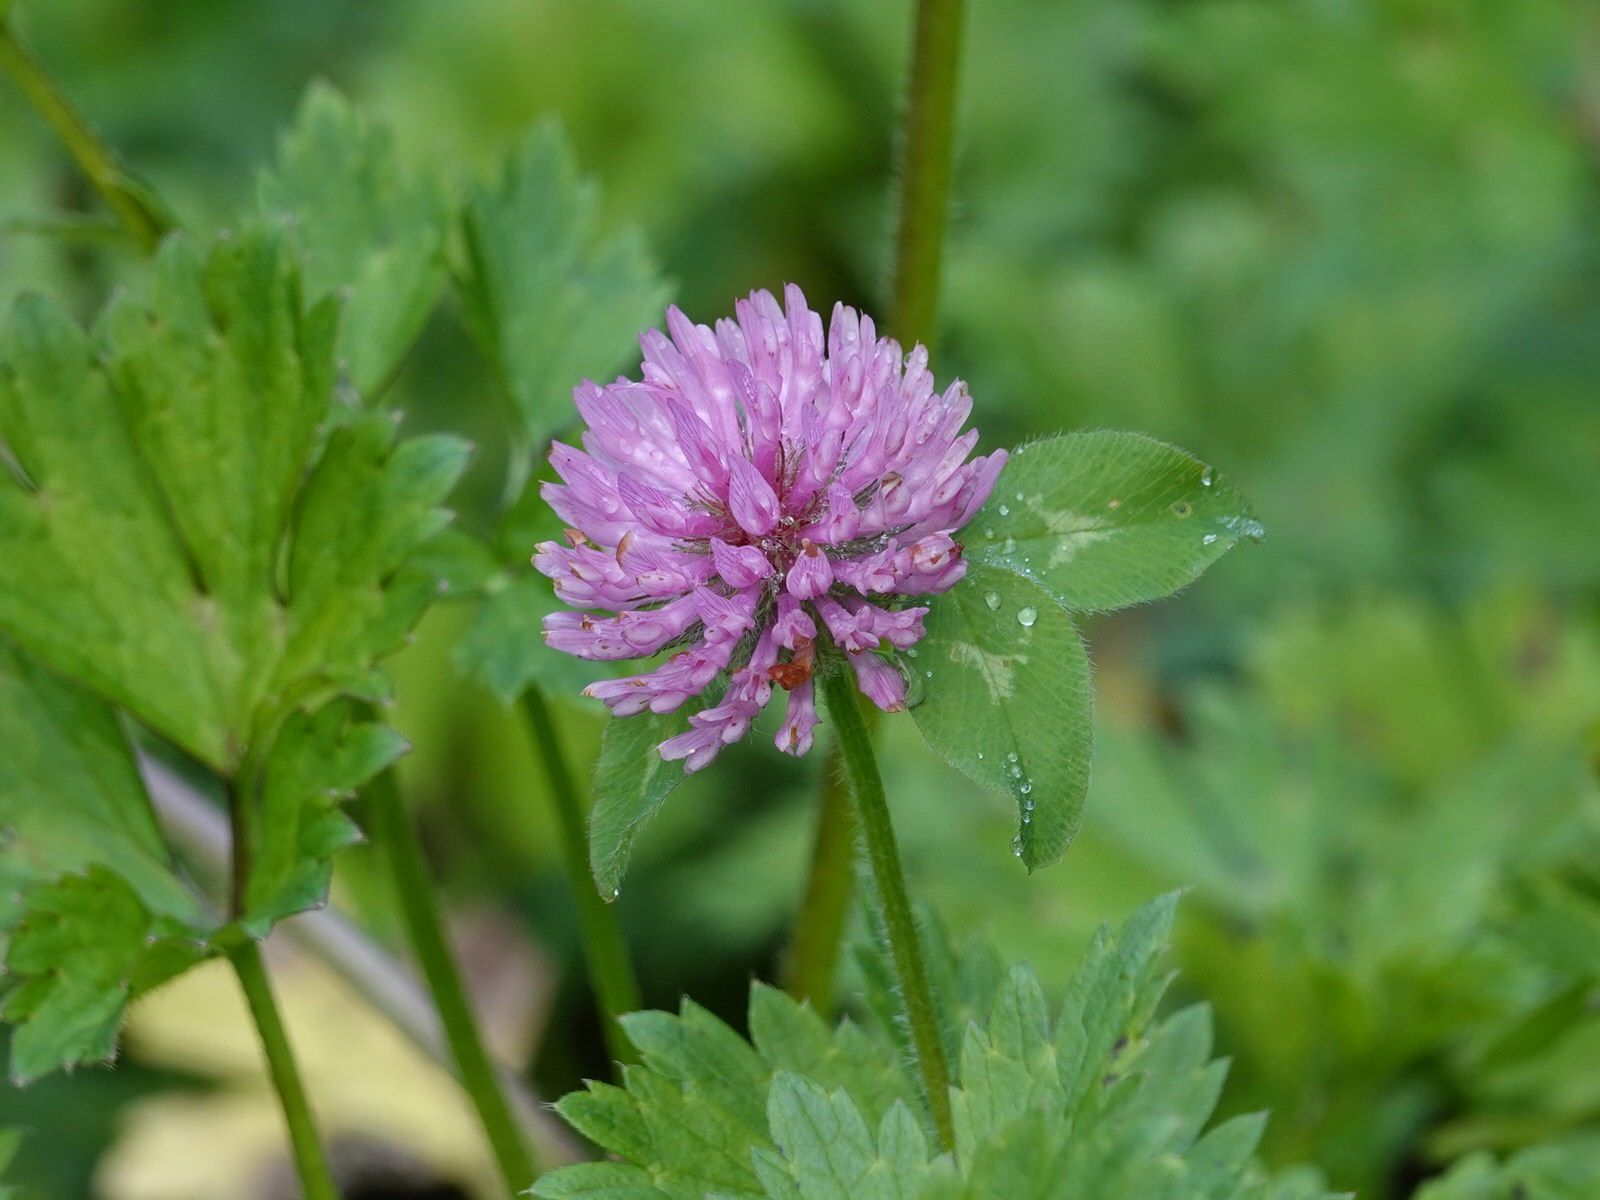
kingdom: Plantae
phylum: Tracheophyta
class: Magnoliopsida
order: Fabales
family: Fabaceae
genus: Trifolium
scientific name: Trifolium pratense
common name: Red clover
